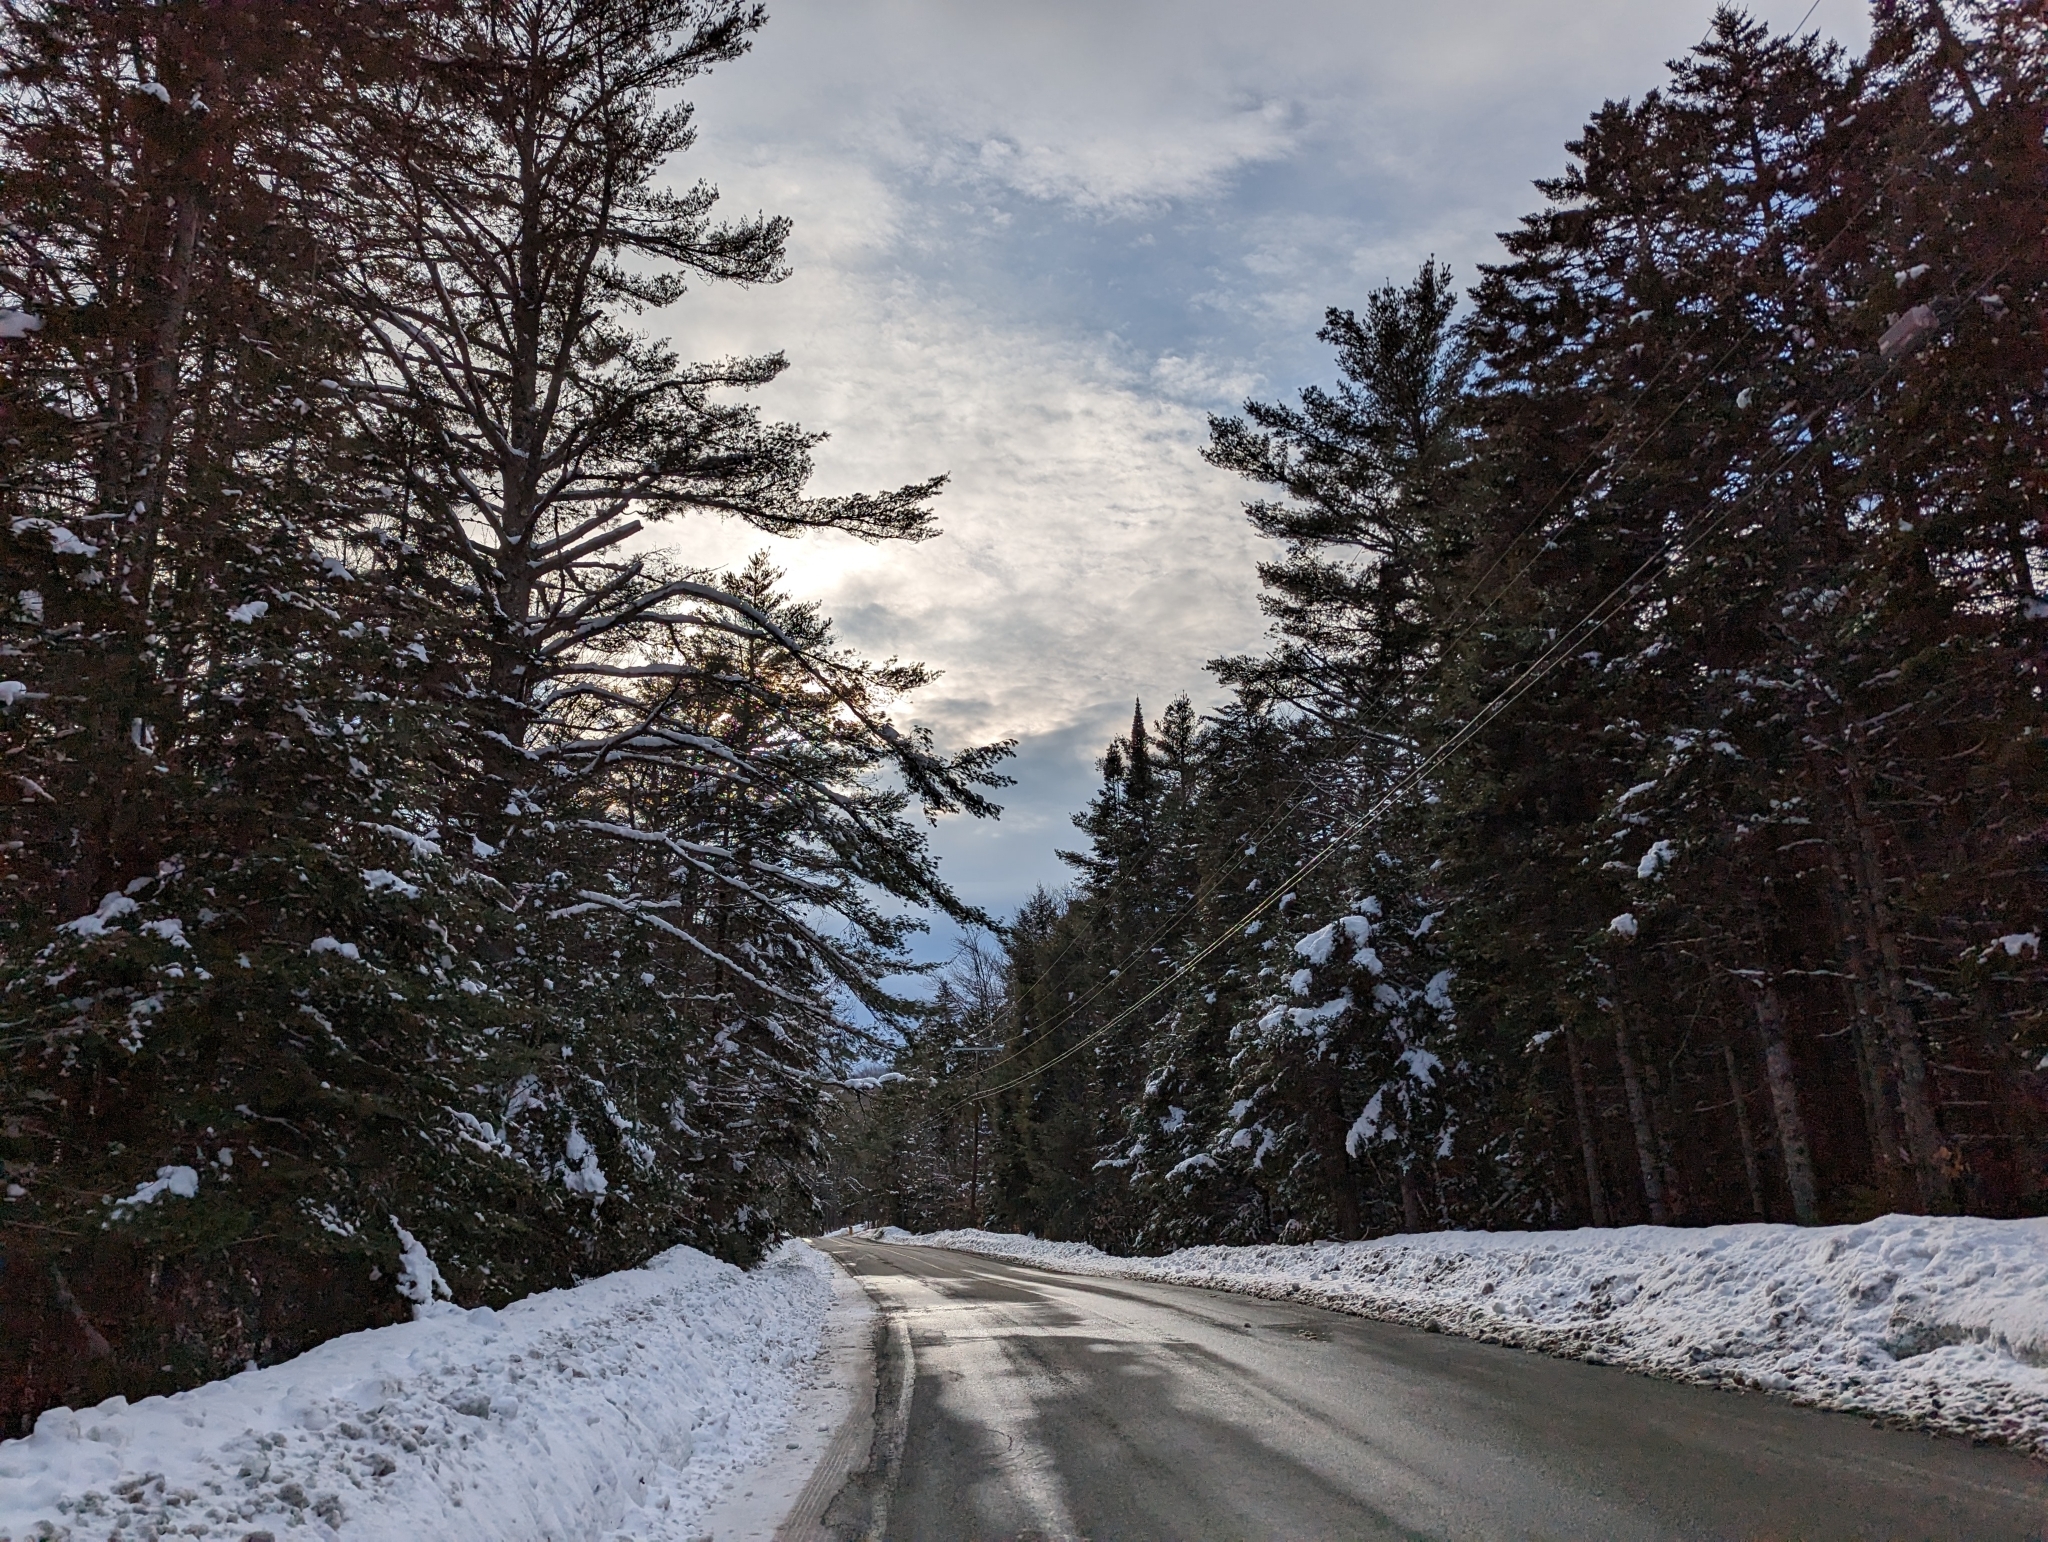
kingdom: Plantae
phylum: Tracheophyta
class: Pinopsida
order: Pinales
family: Pinaceae
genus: Pinus
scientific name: Pinus strobus
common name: Weymouth pine
